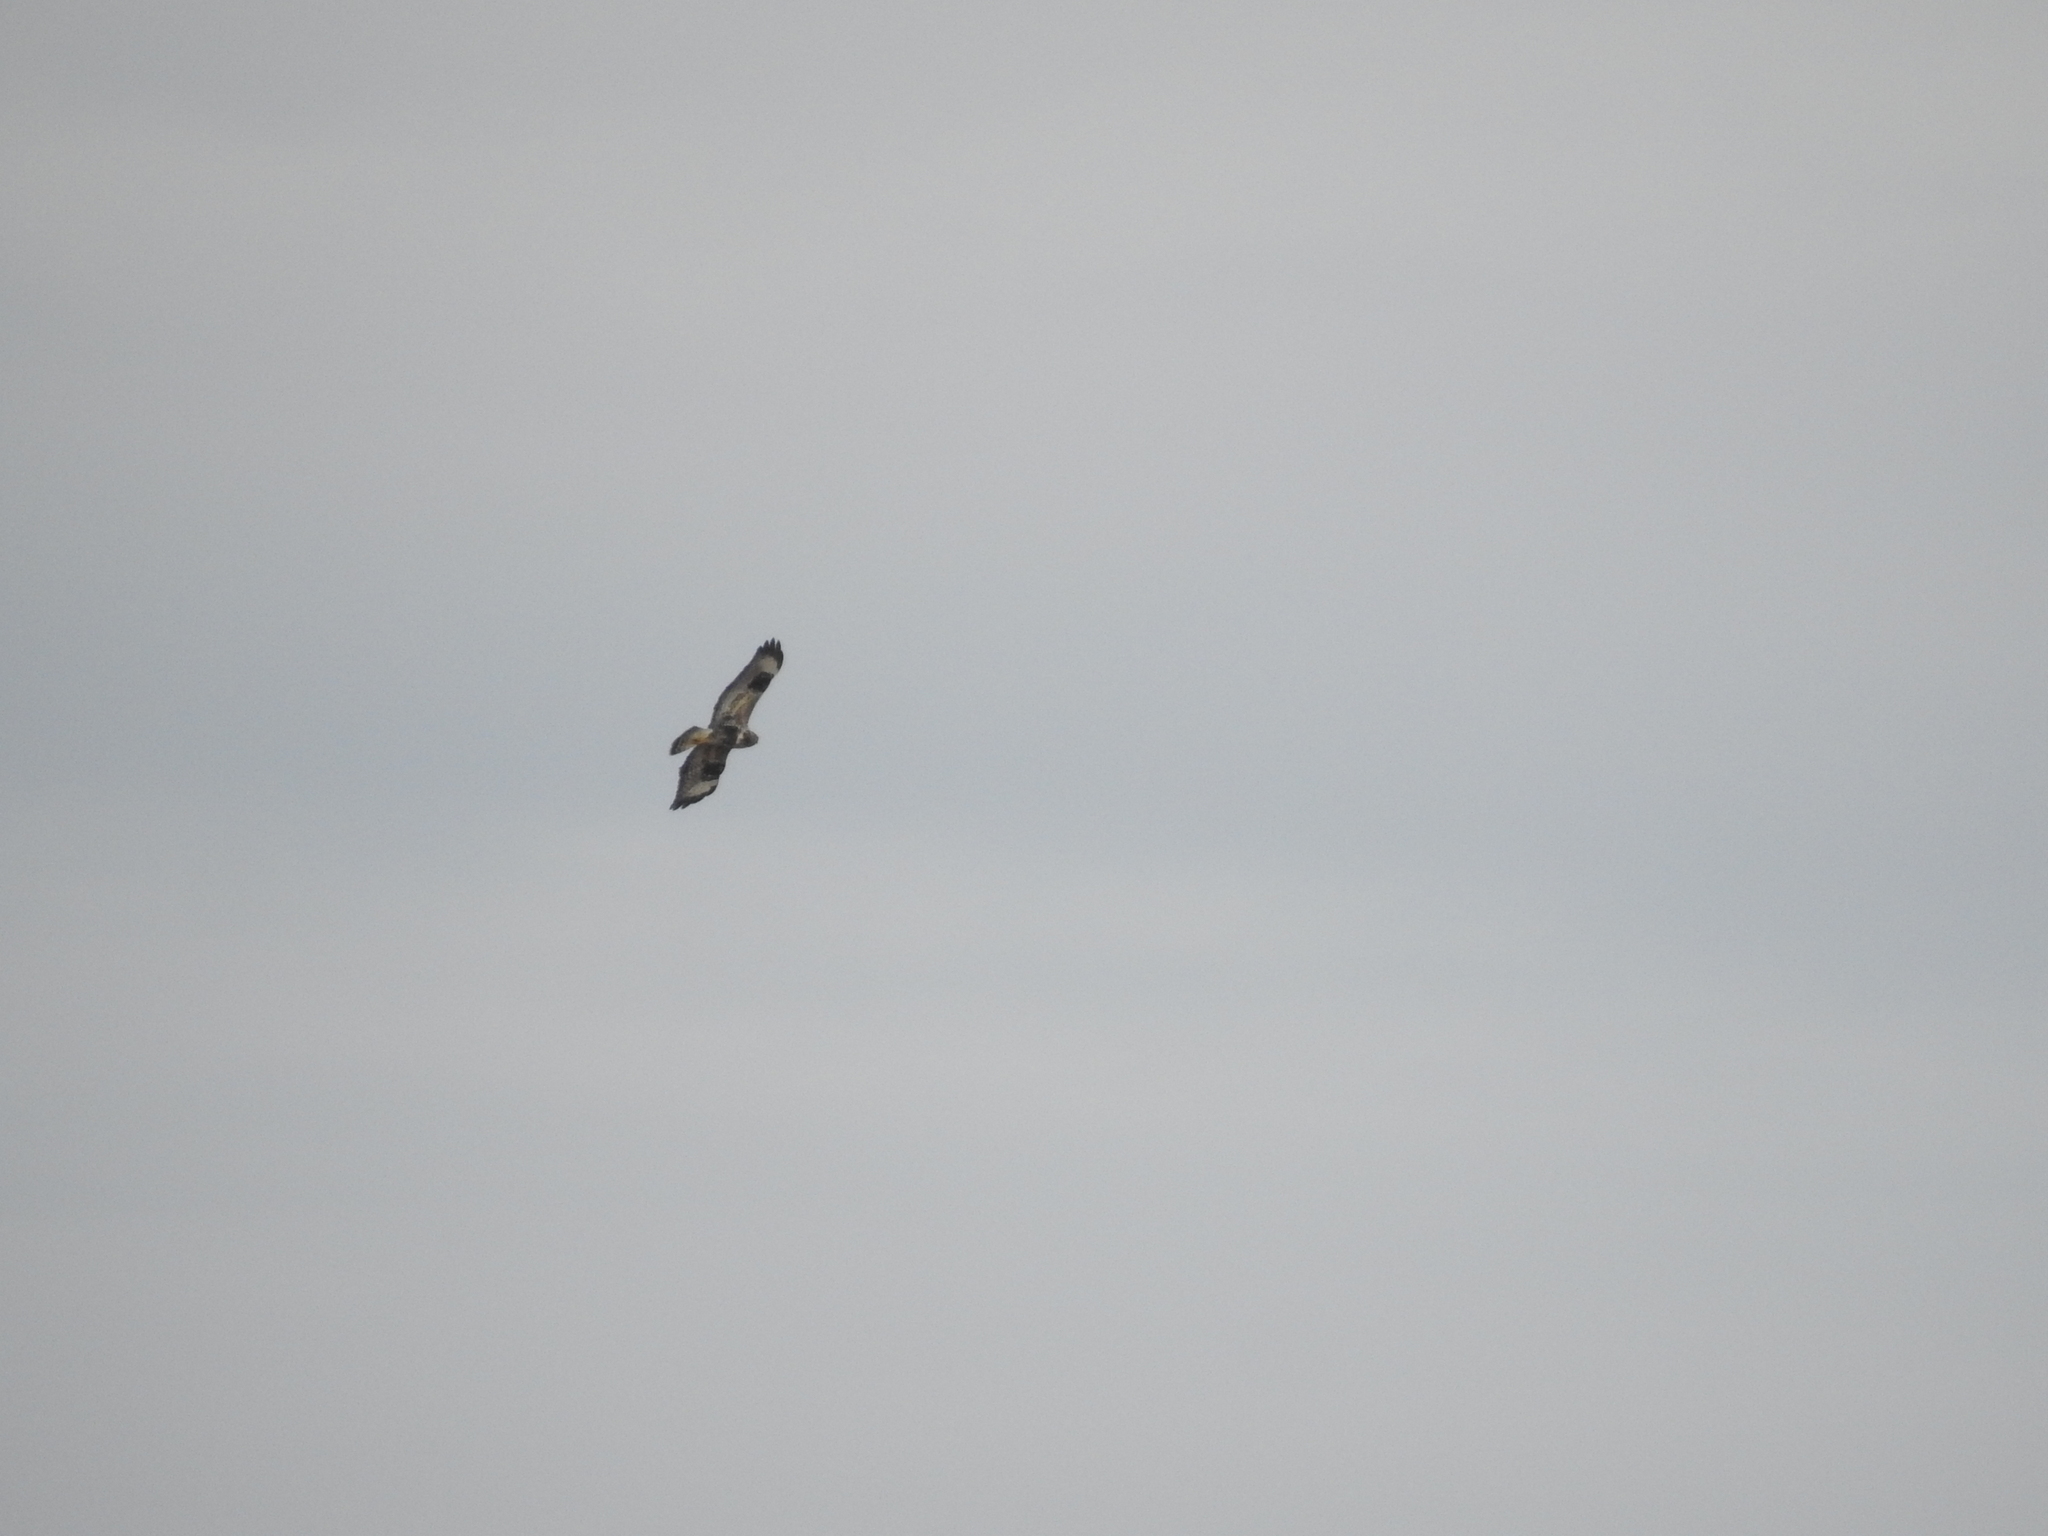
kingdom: Animalia
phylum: Chordata
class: Aves
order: Accipitriformes
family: Accipitridae
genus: Buteo
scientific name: Buteo lagopus
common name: Rough-legged buzzard
